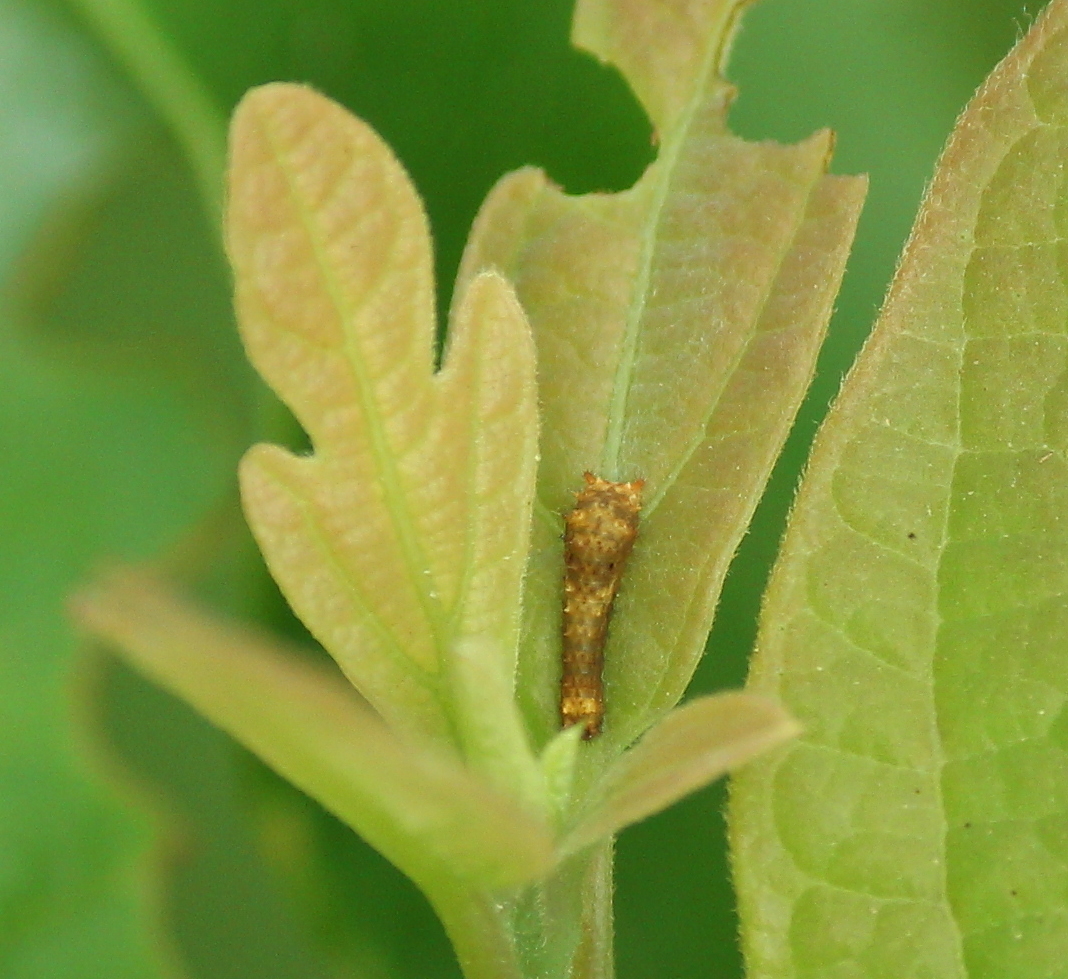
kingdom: Animalia
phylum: Arthropoda
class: Insecta
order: Lepidoptera
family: Papilionidae
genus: Papilio
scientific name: Papilio troilus
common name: Spicebush swallowtail
